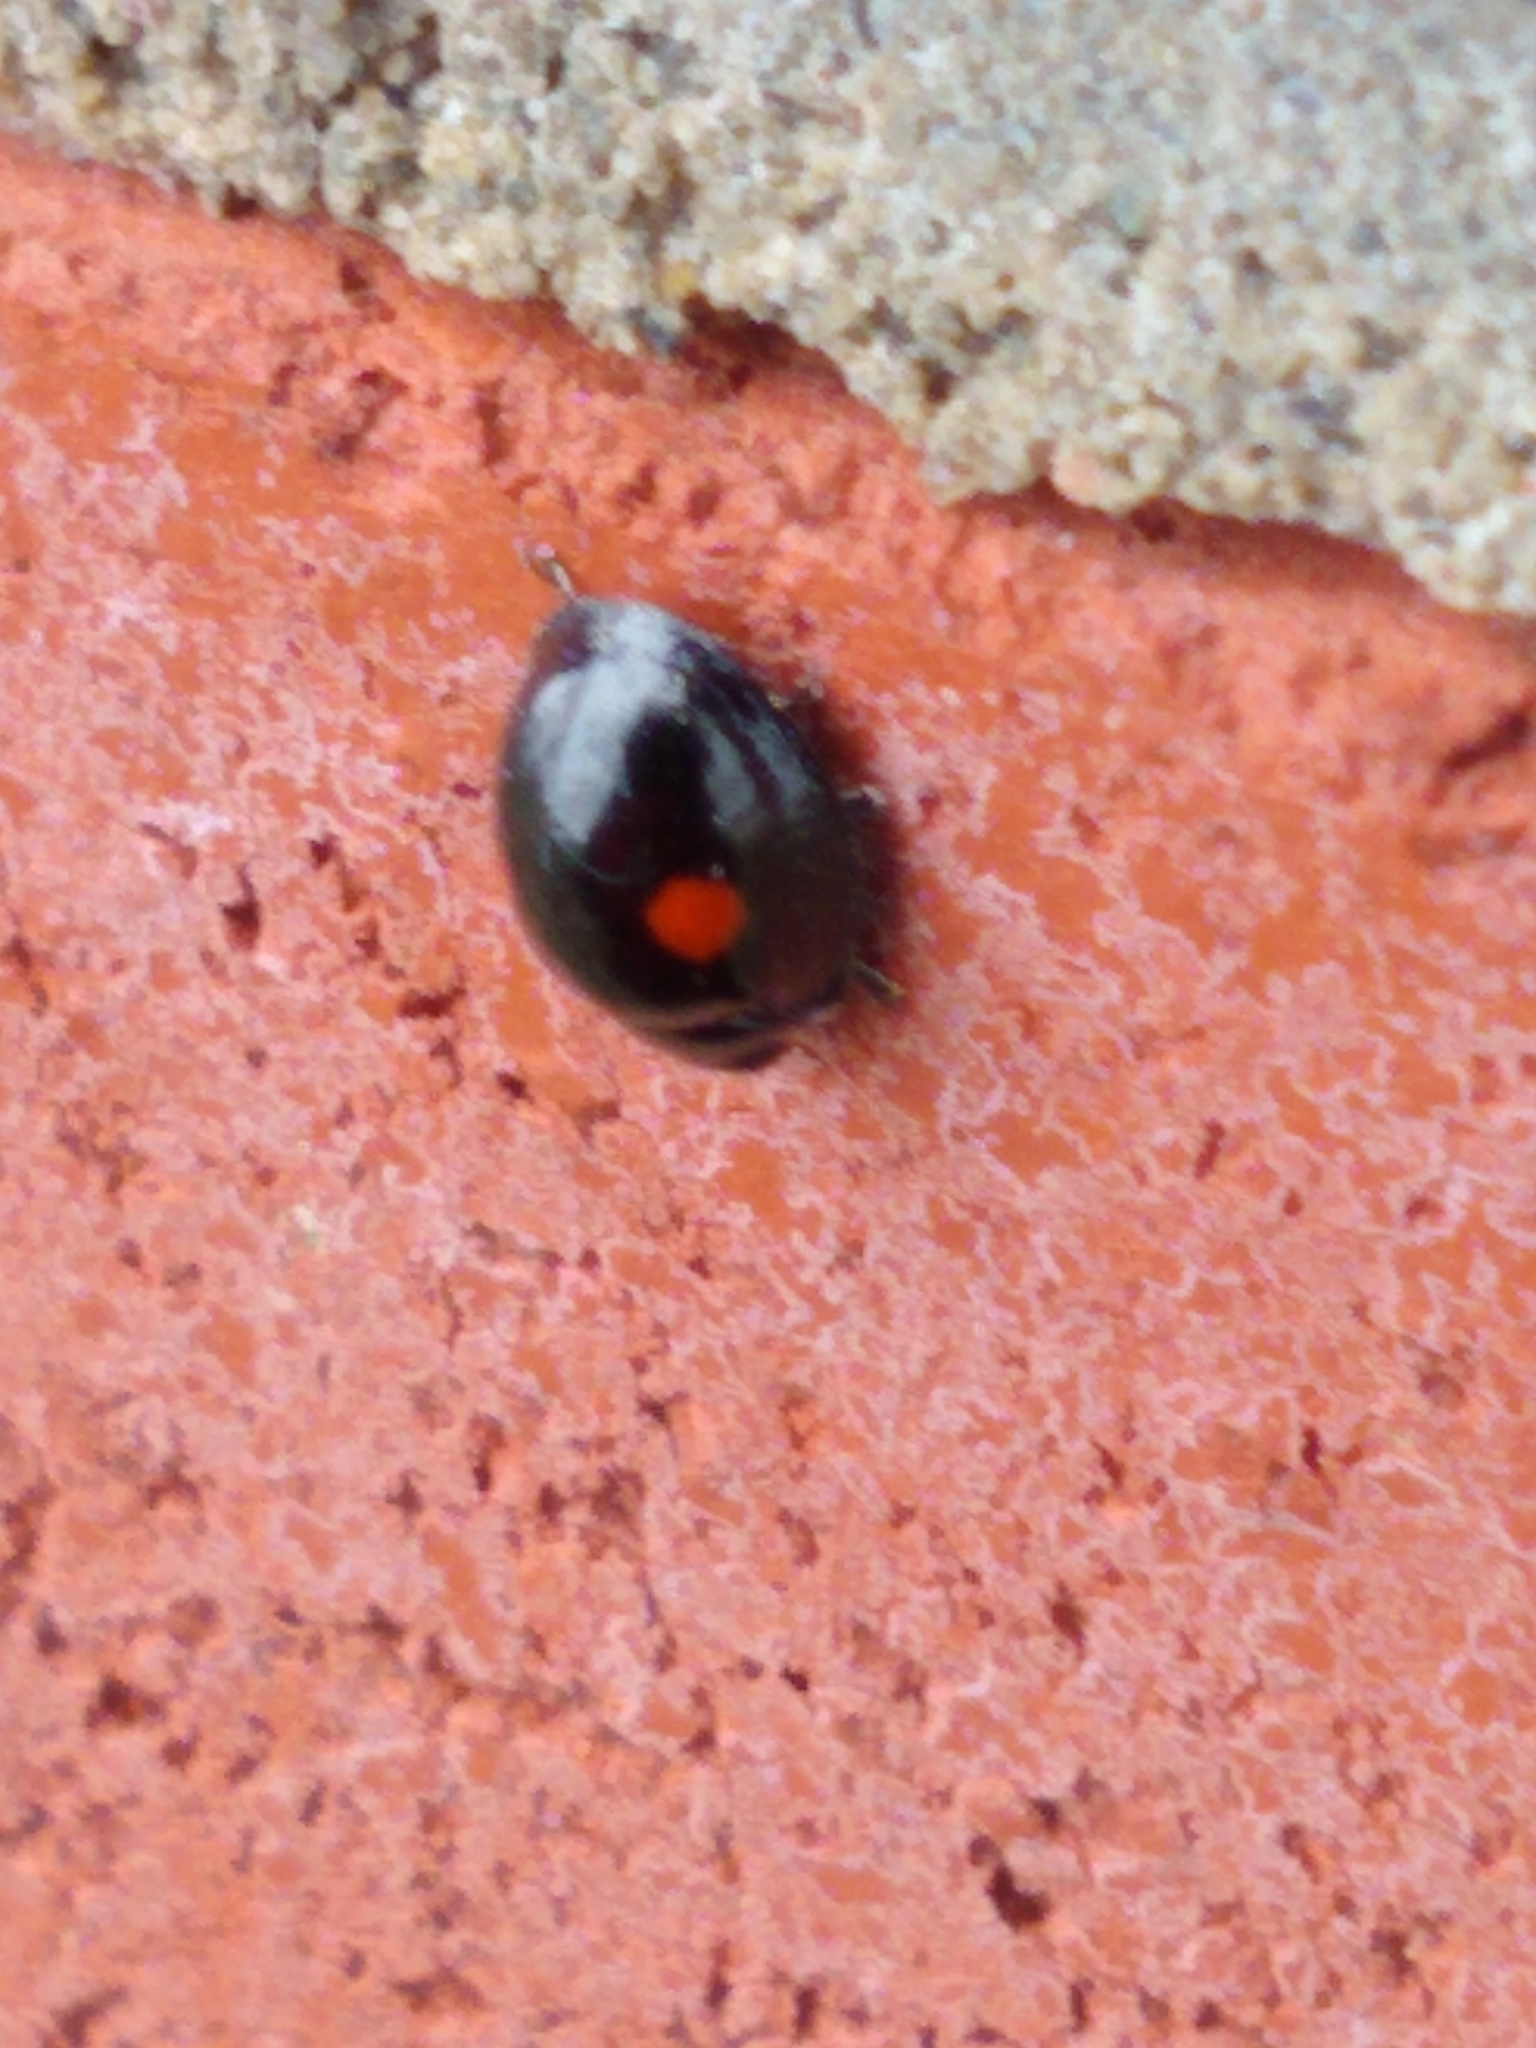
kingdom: Animalia
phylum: Arthropoda
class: Insecta
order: Coleoptera
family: Coccinellidae
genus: Chilocorus
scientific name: Chilocorus stigma
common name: Twicestabbed lady beetle
